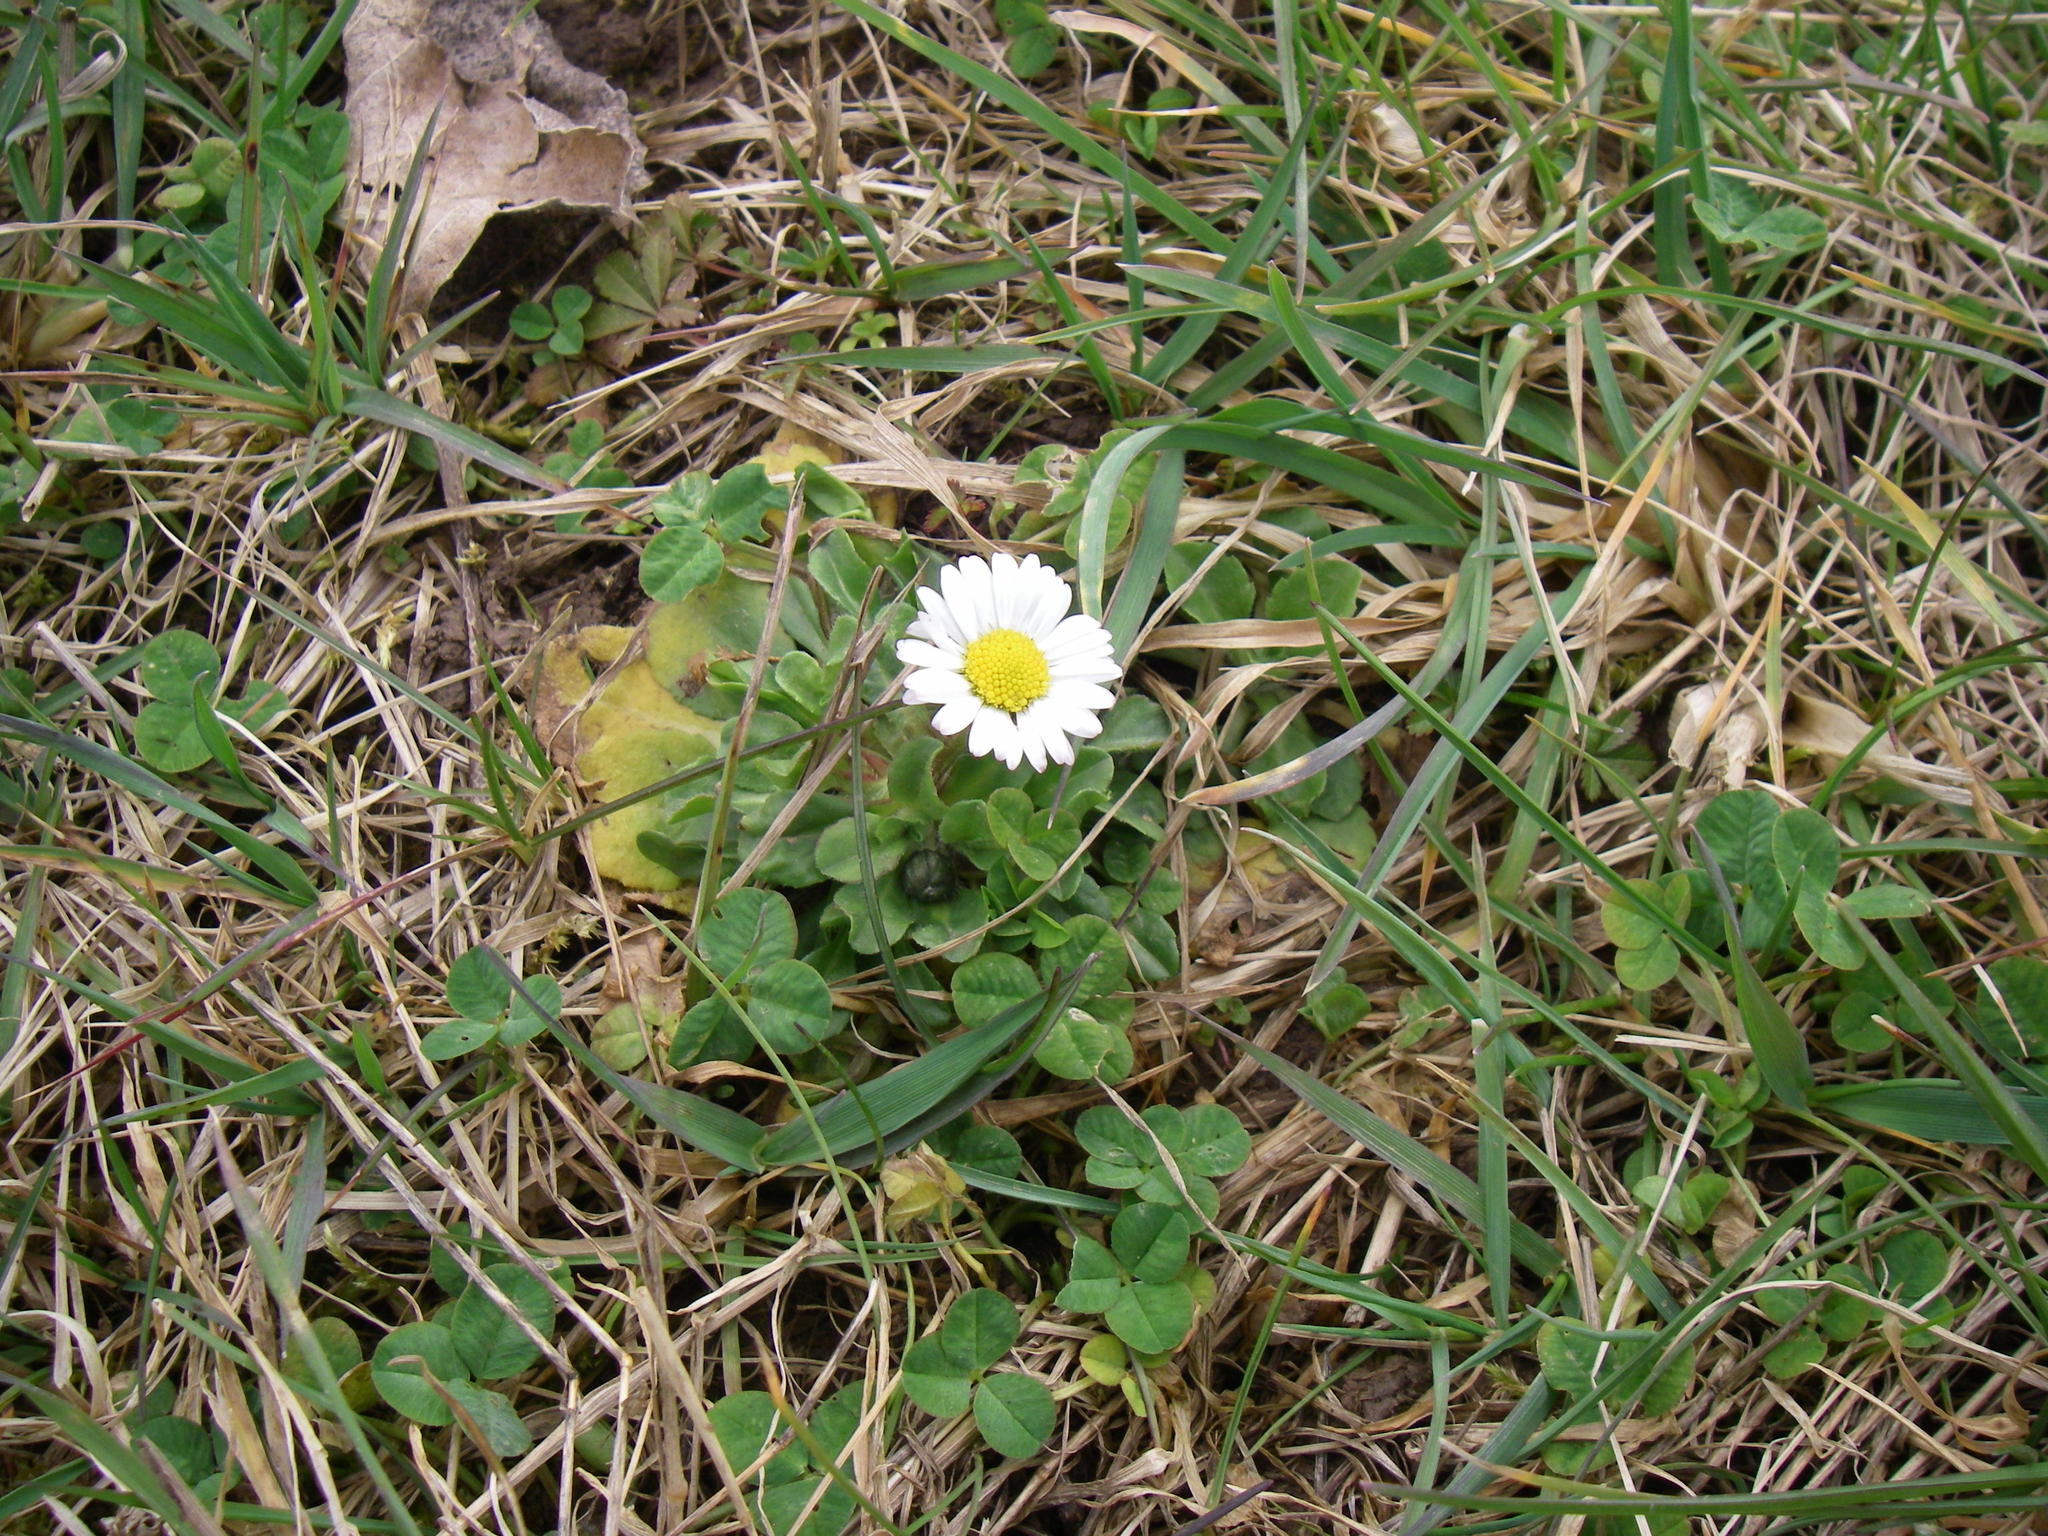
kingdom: Plantae
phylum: Tracheophyta
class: Magnoliopsida
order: Asterales
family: Asteraceae
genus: Bellis
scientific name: Bellis perennis
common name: Lawndaisy
